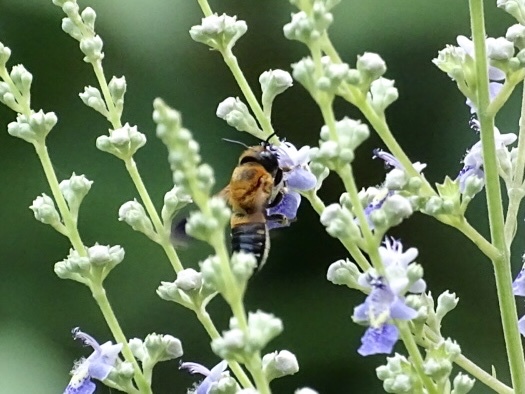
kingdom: Animalia
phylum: Arthropoda
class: Insecta
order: Hymenoptera
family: Megachilidae
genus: Megachile
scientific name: Megachile umbripennis
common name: Shadow-winged resin bee
